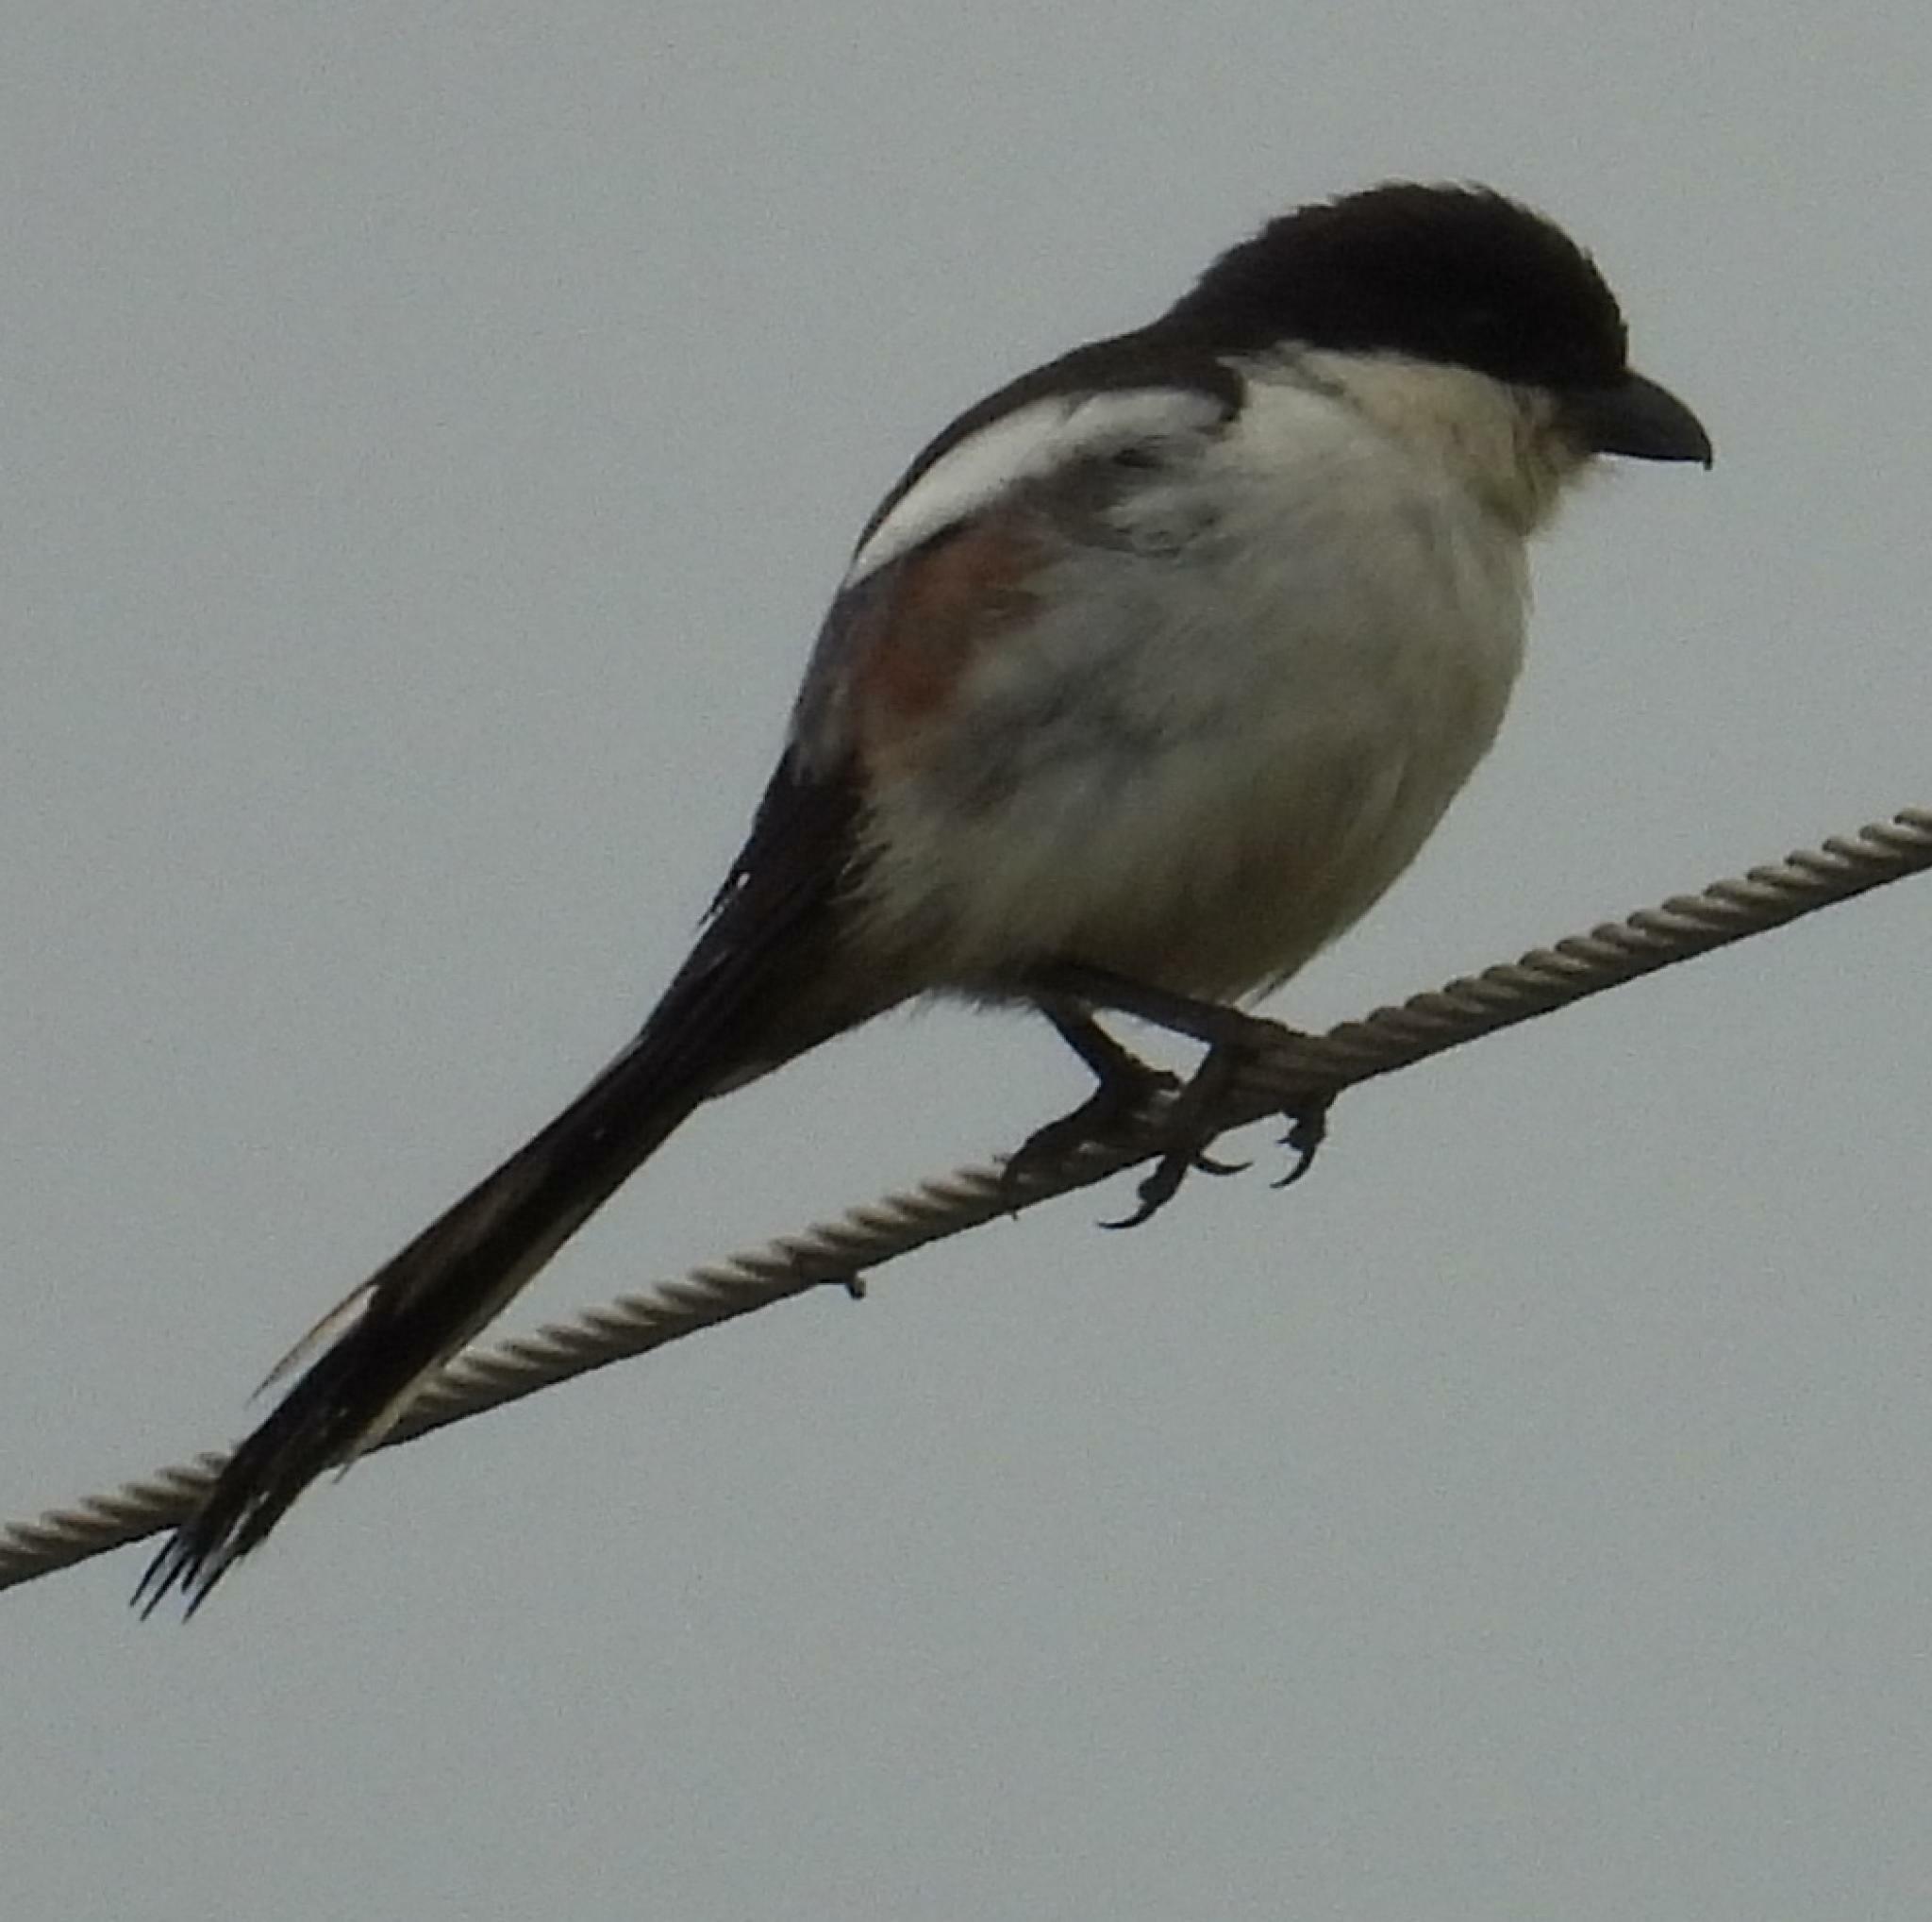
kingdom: Animalia
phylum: Chordata
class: Aves
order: Passeriformes
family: Laniidae
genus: Lanius
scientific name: Lanius collaris
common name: Southern fiscal
